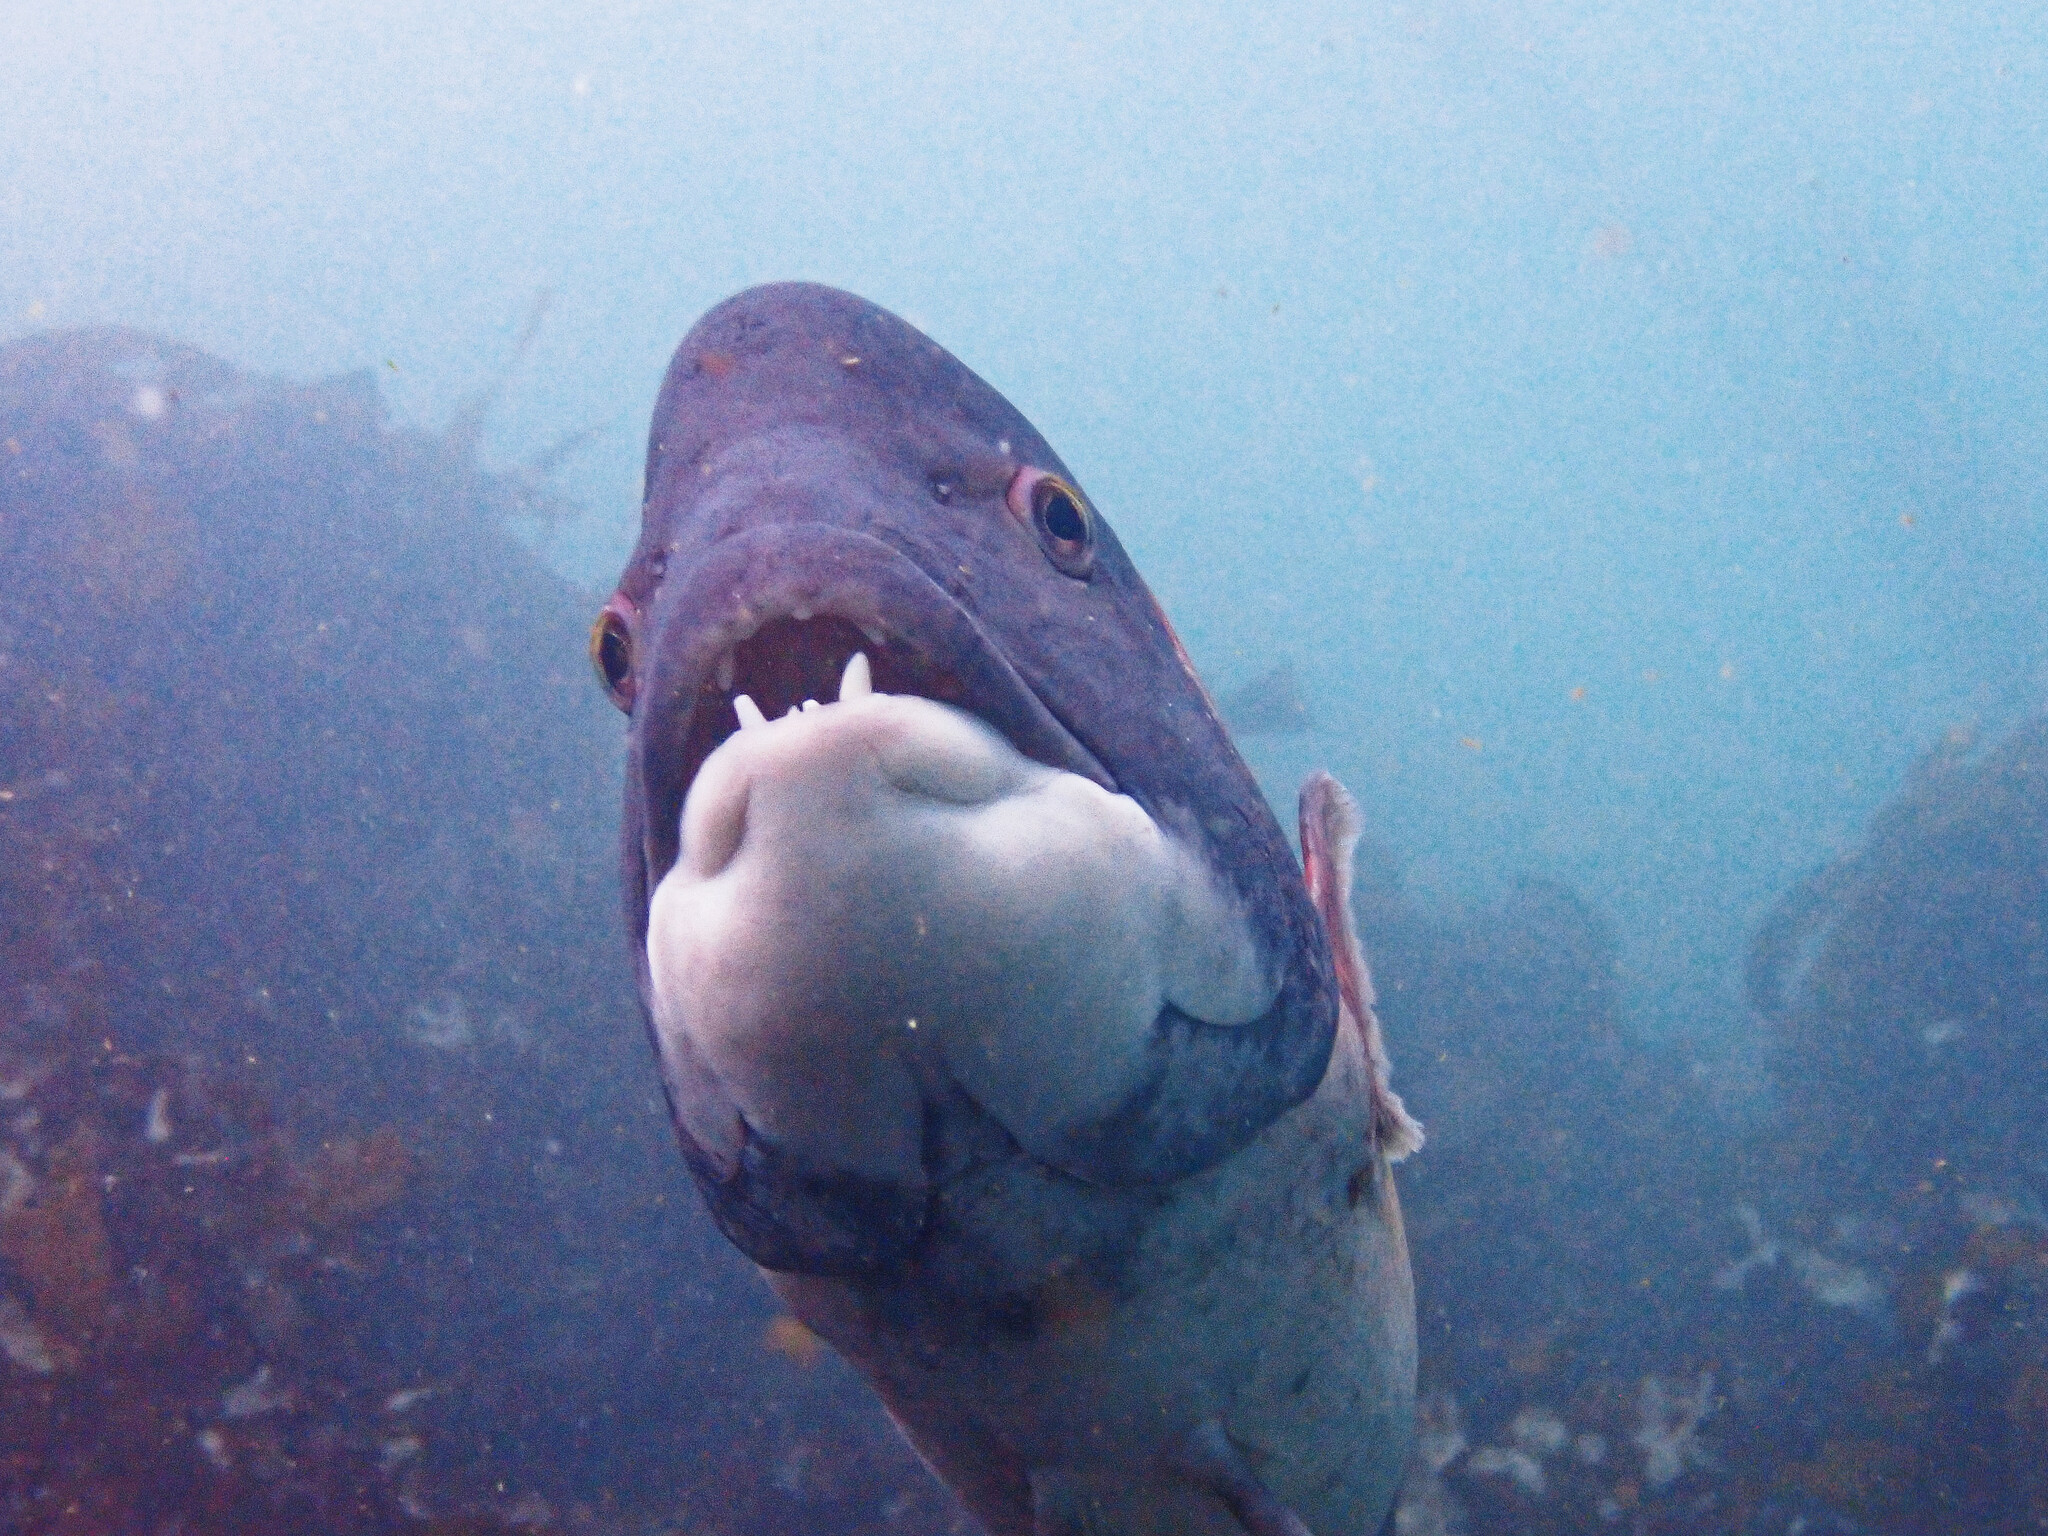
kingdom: Animalia
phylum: Chordata
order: Perciformes
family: Labridae
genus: Semicossyphus
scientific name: Semicossyphus pulcher
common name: California sheephead
